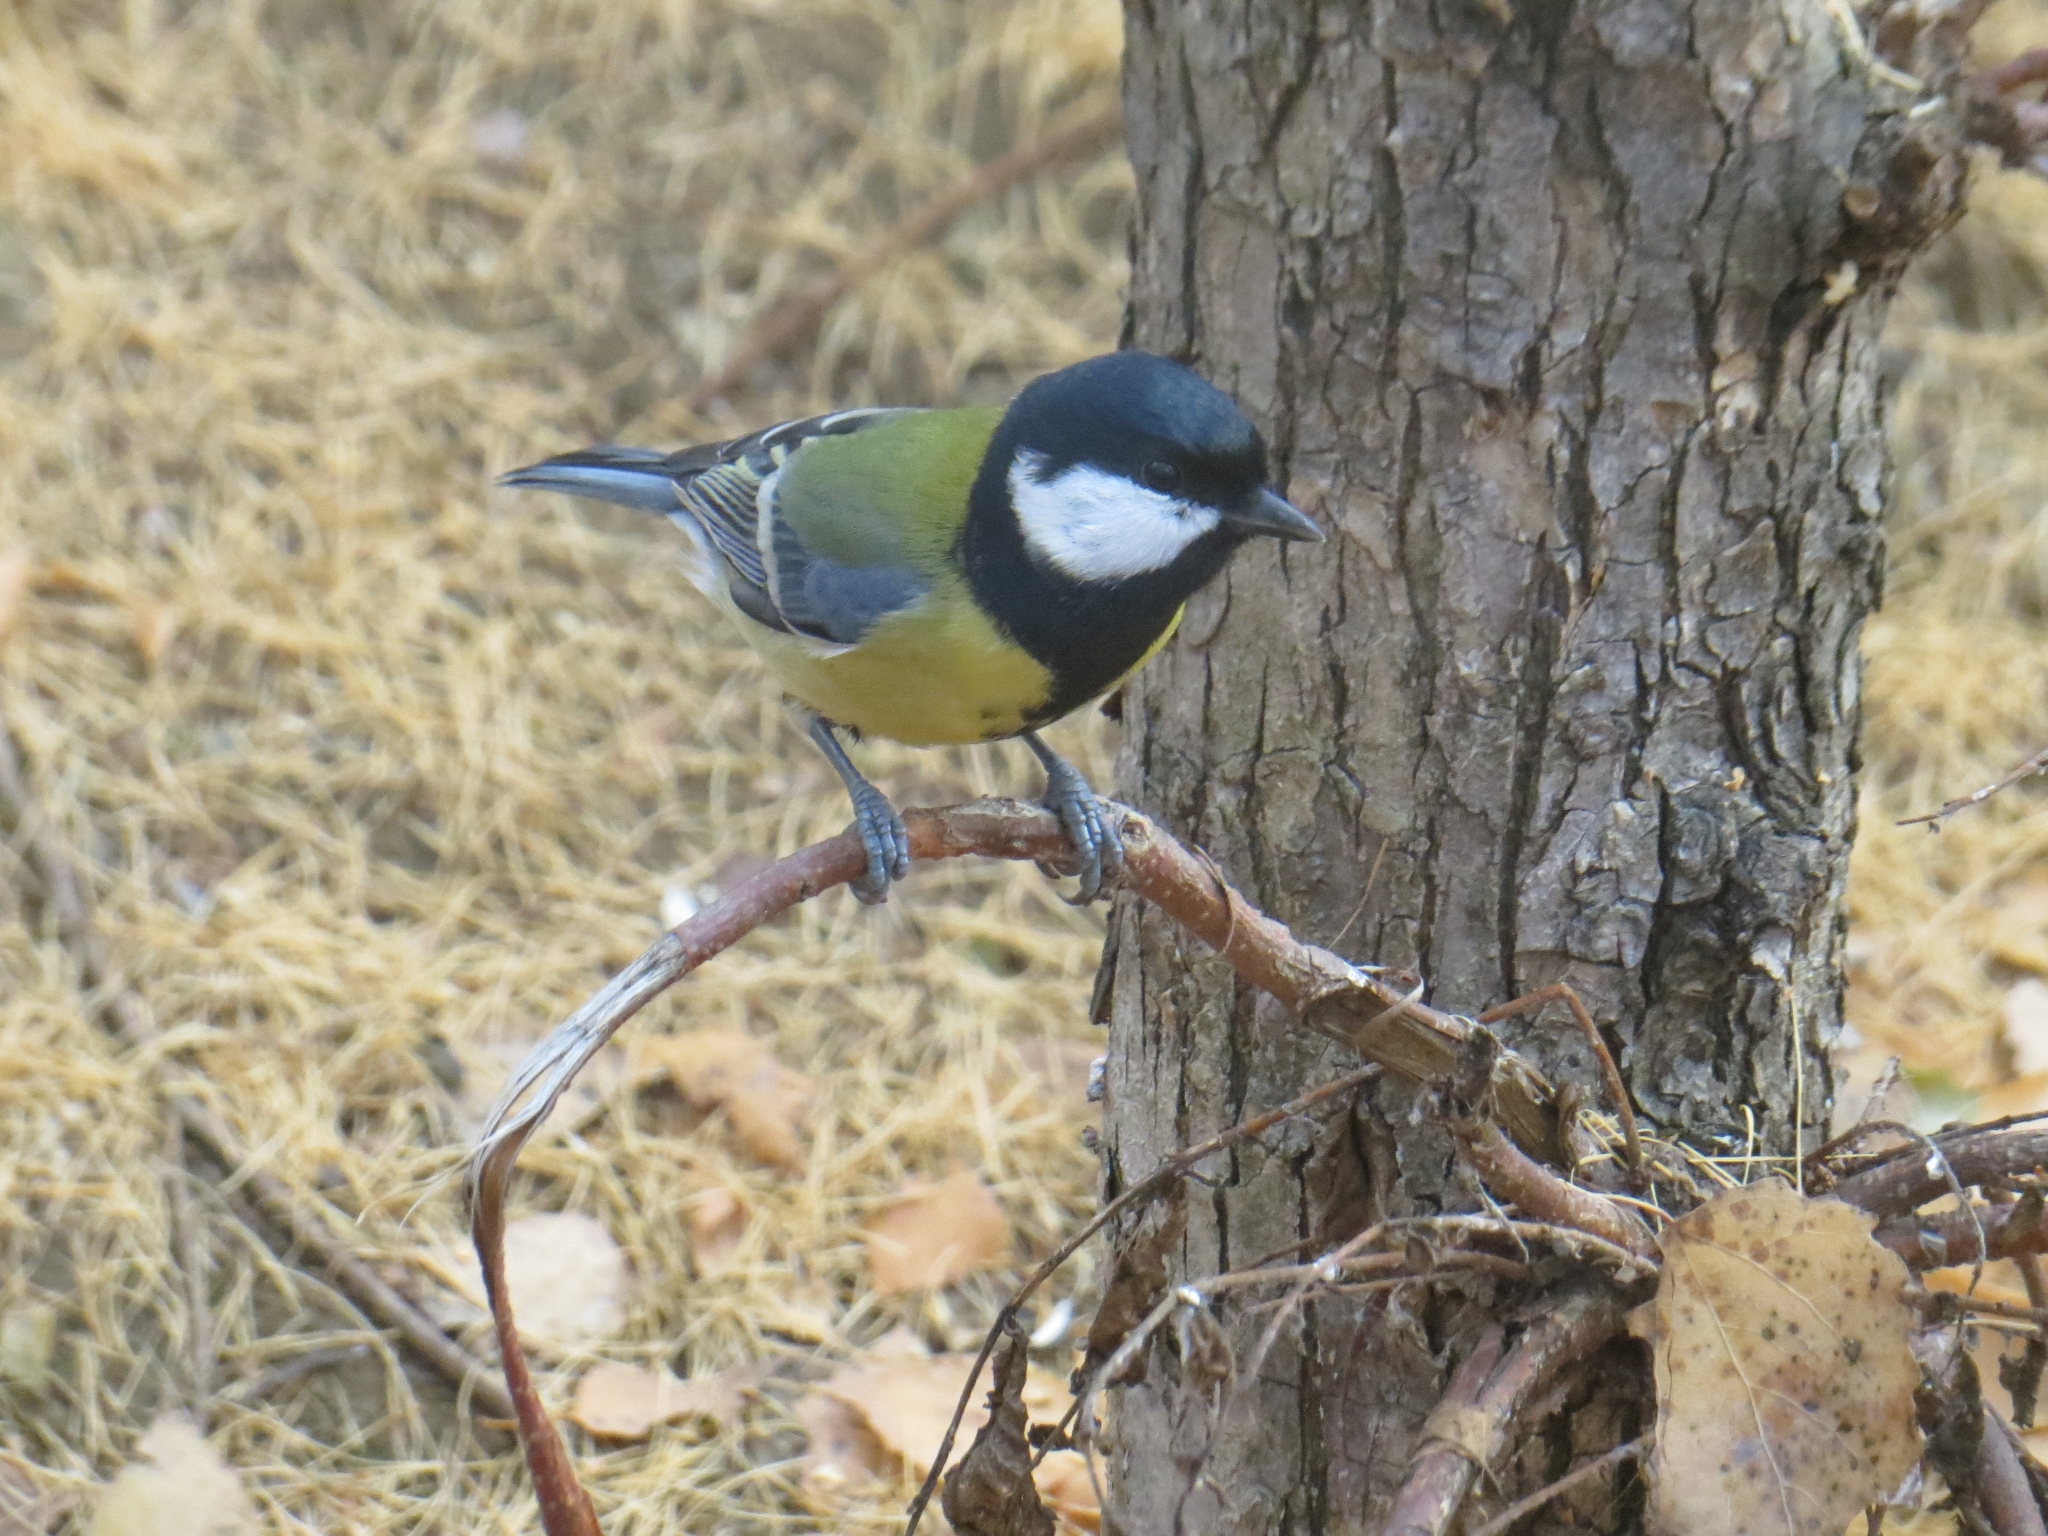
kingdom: Animalia
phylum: Chordata
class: Aves
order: Passeriformes
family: Paridae
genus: Parus
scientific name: Parus major
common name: Great tit
